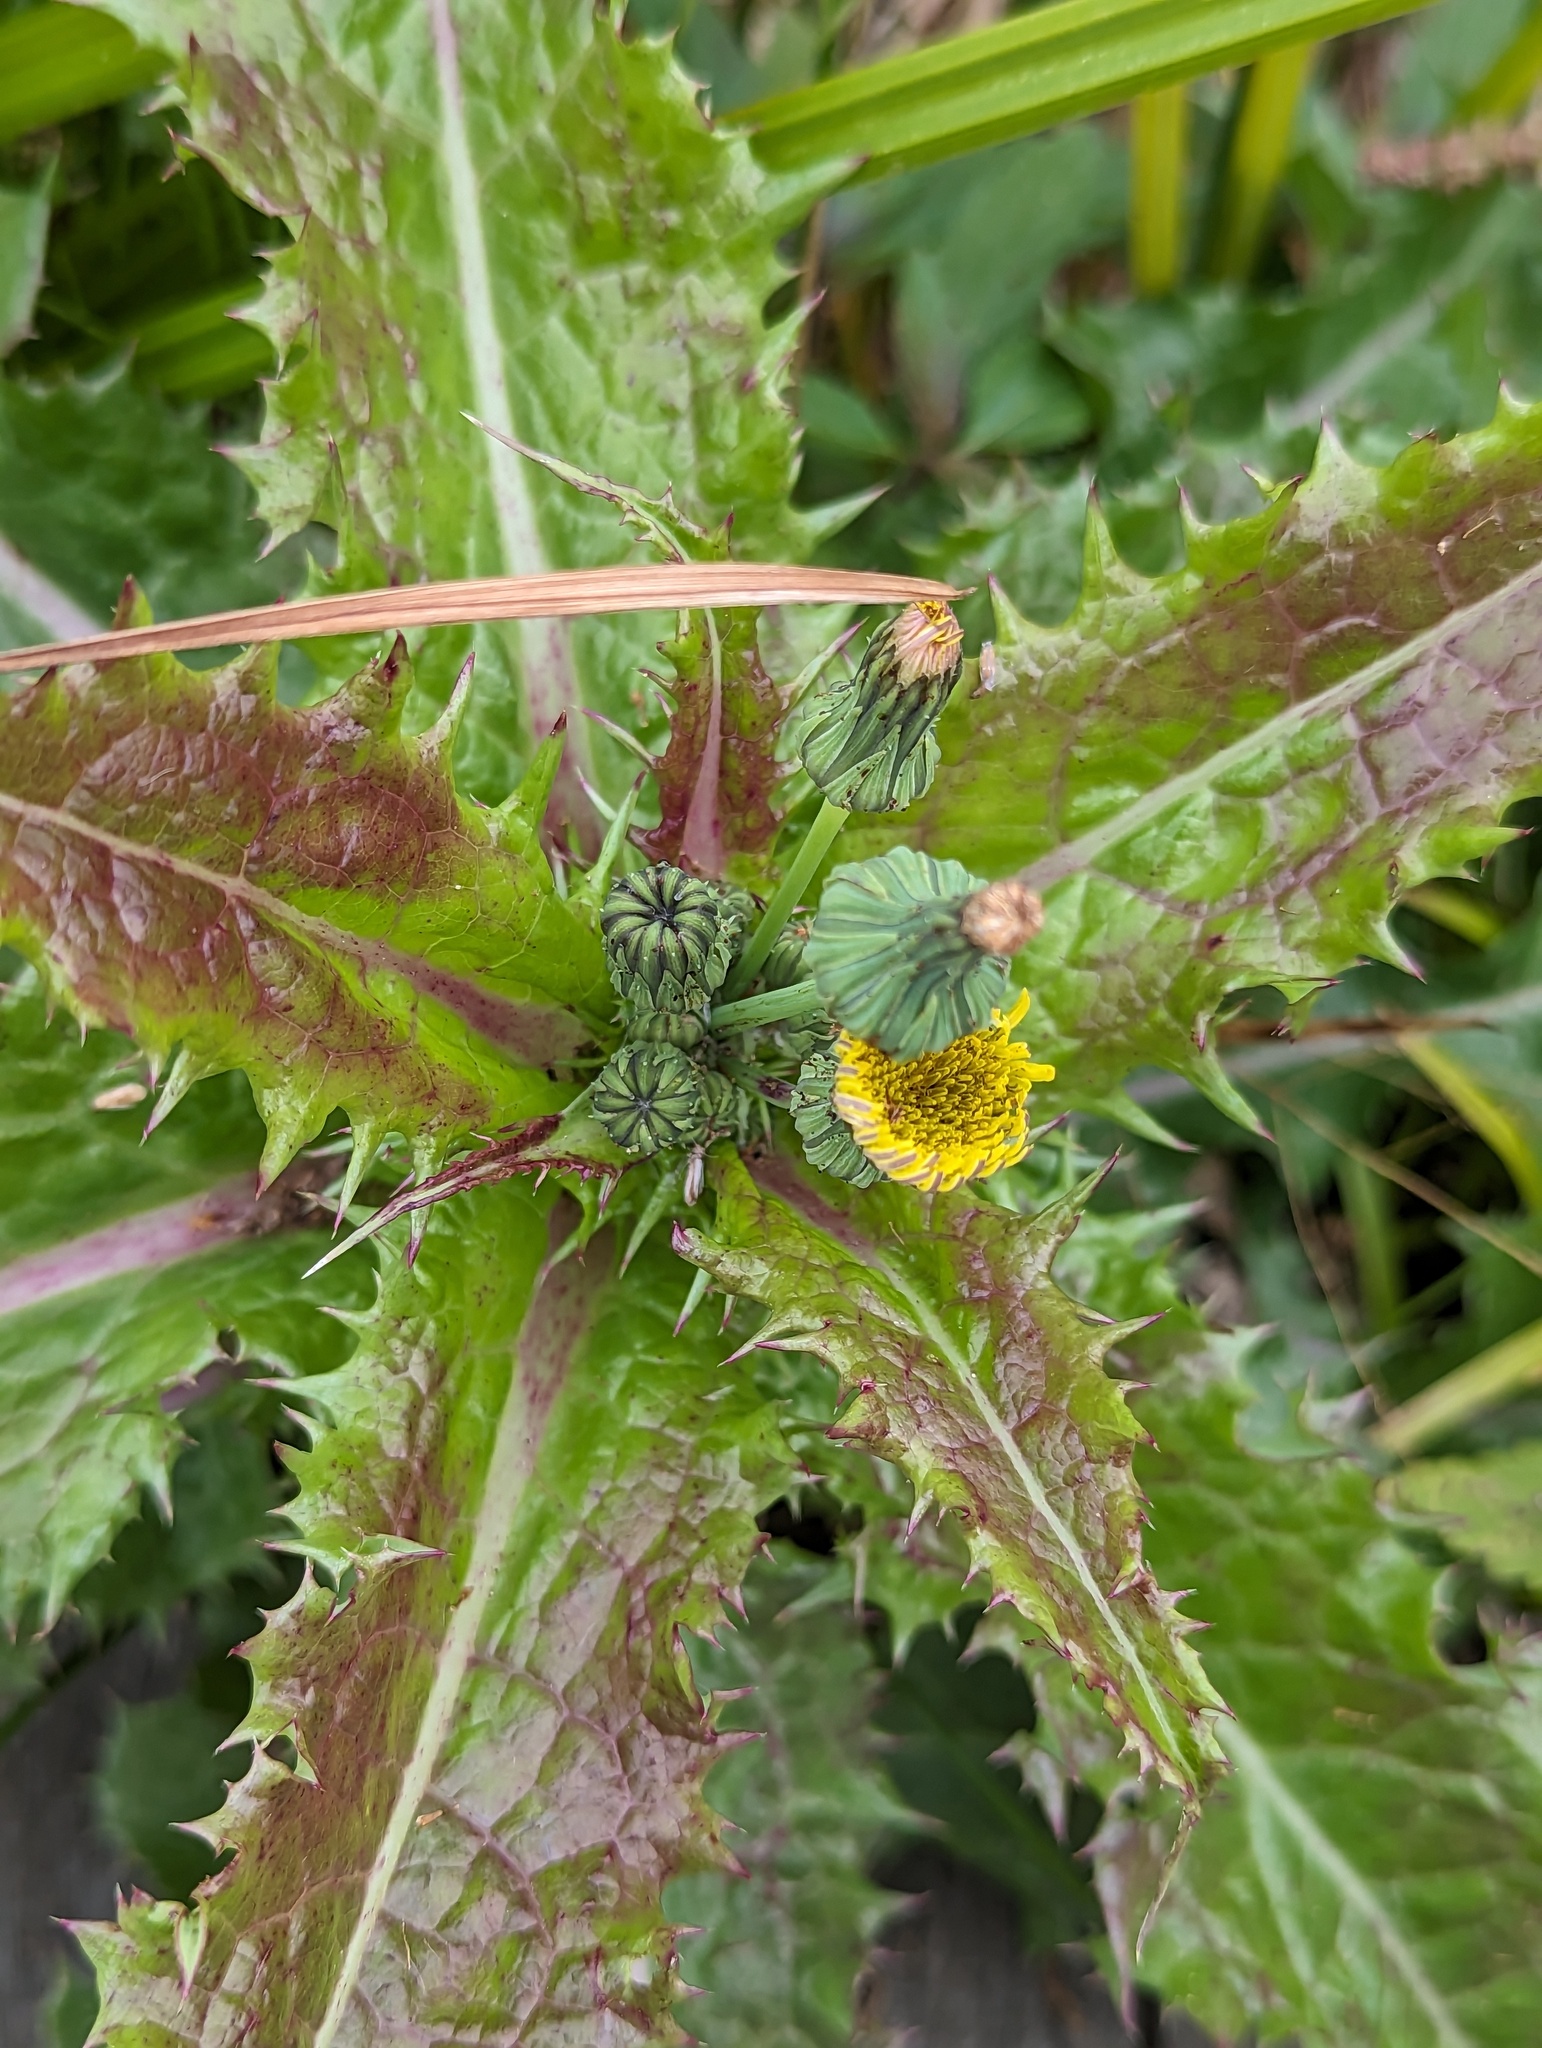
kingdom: Plantae
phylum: Tracheophyta
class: Magnoliopsida
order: Asterales
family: Asteraceae
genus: Sonchus
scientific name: Sonchus asper
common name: Prickly sow-thistle
